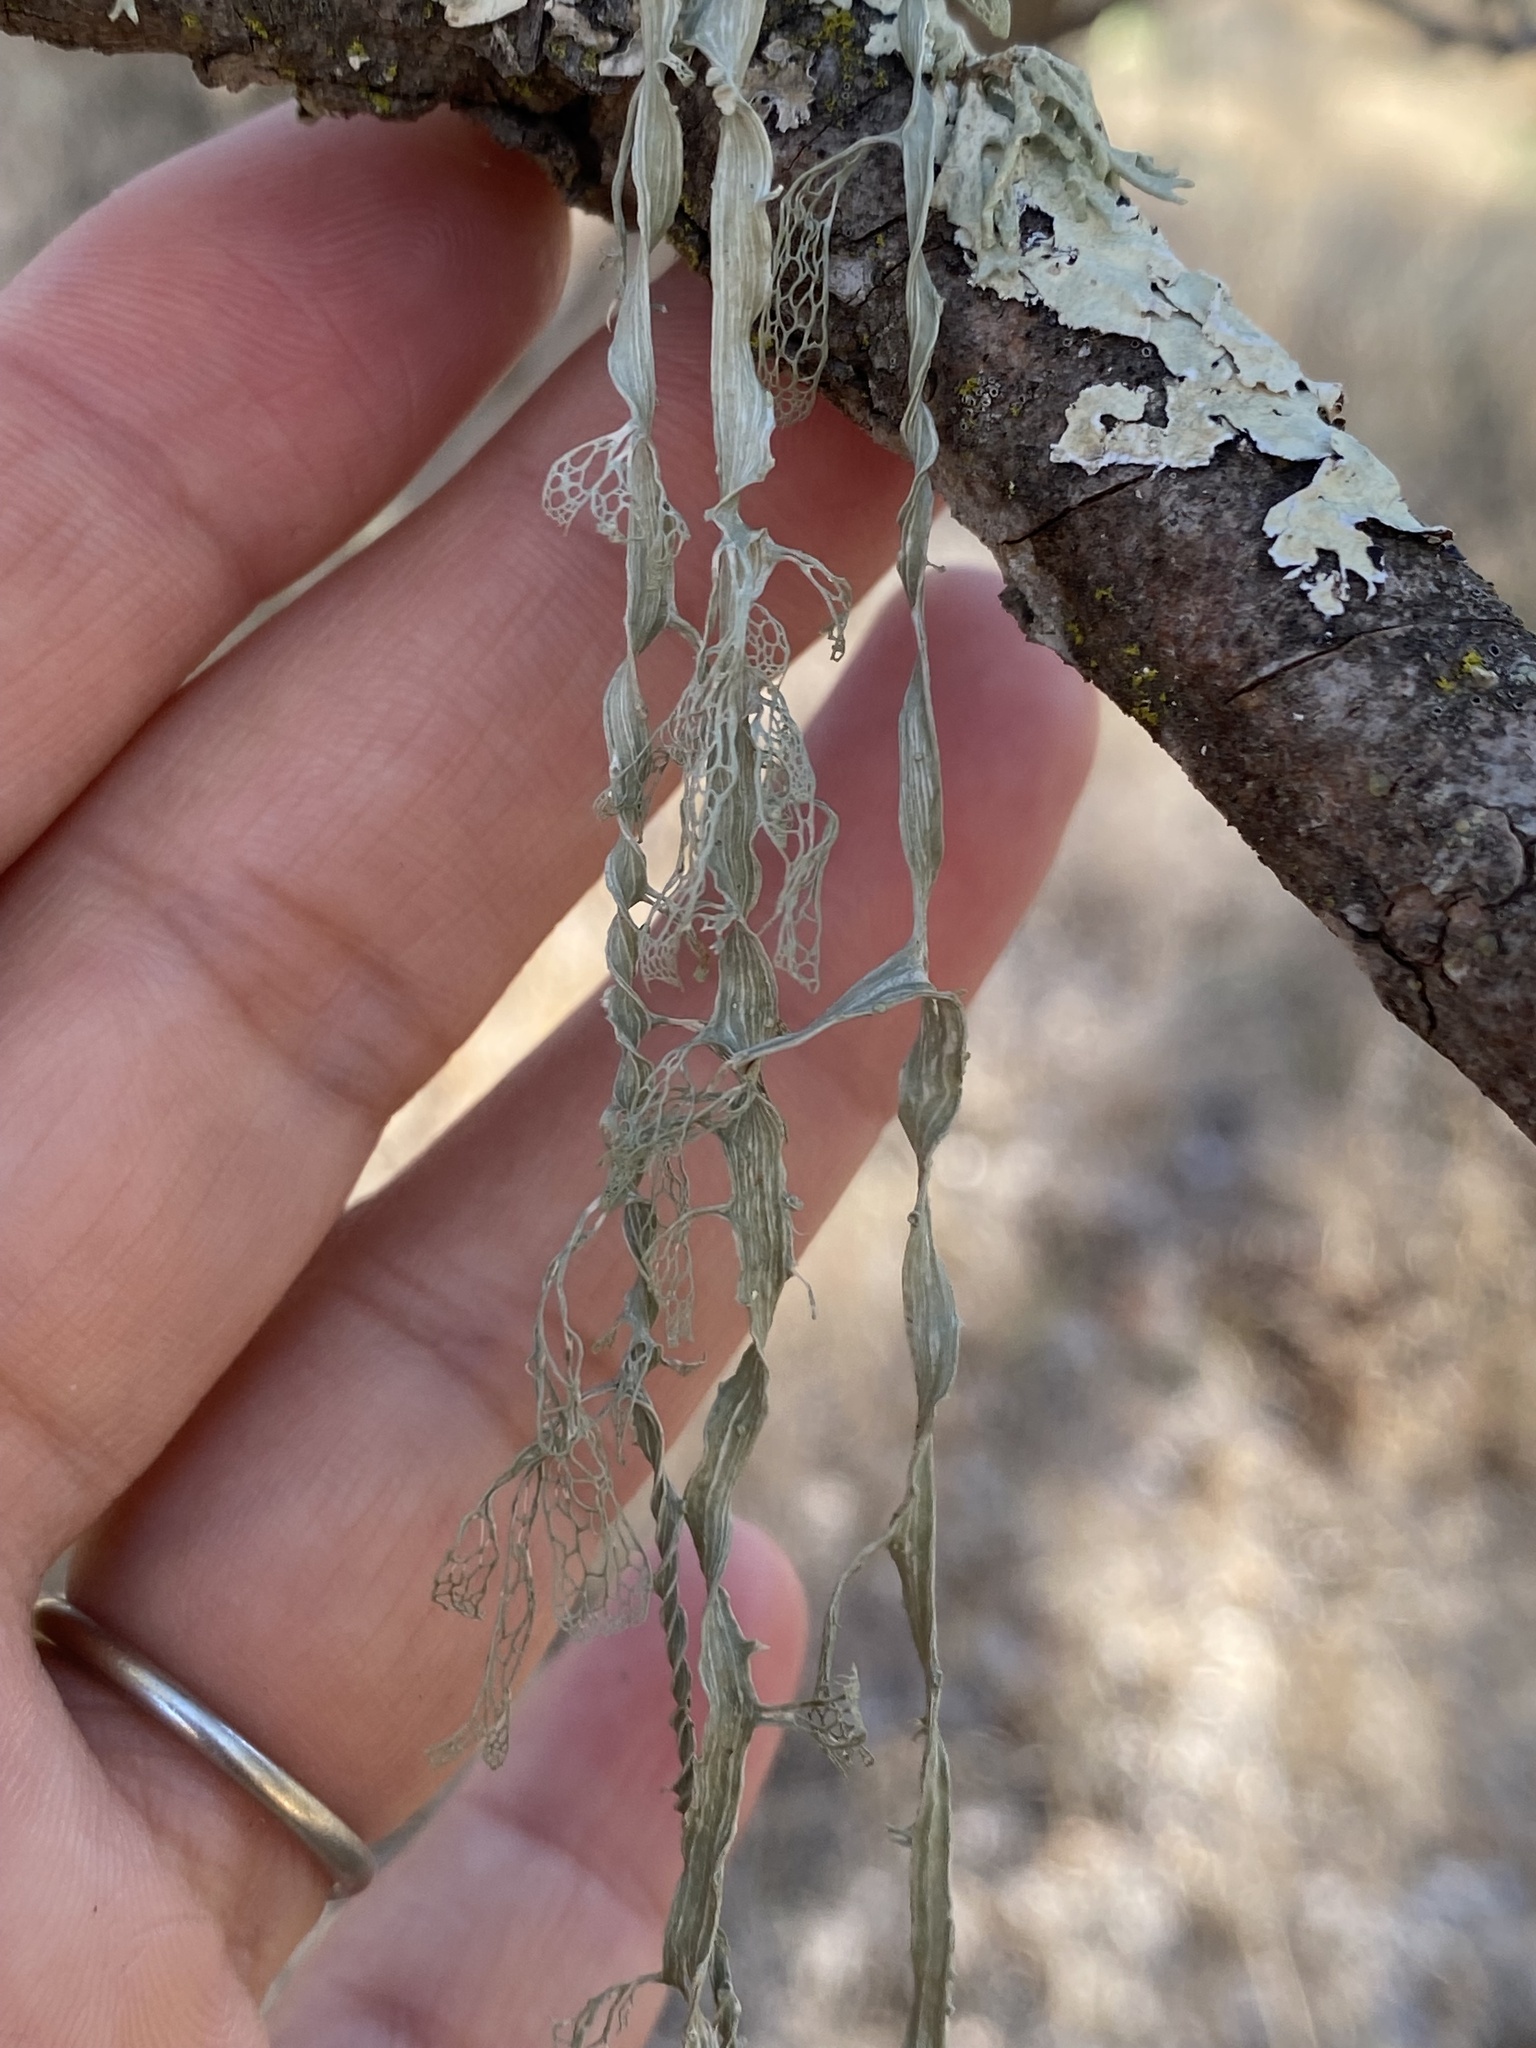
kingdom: Fungi
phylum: Ascomycota
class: Lecanoromycetes
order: Lecanorales
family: Ramalinaceae
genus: Ramalina
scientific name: Ramalina menziesii
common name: Lace lichen
